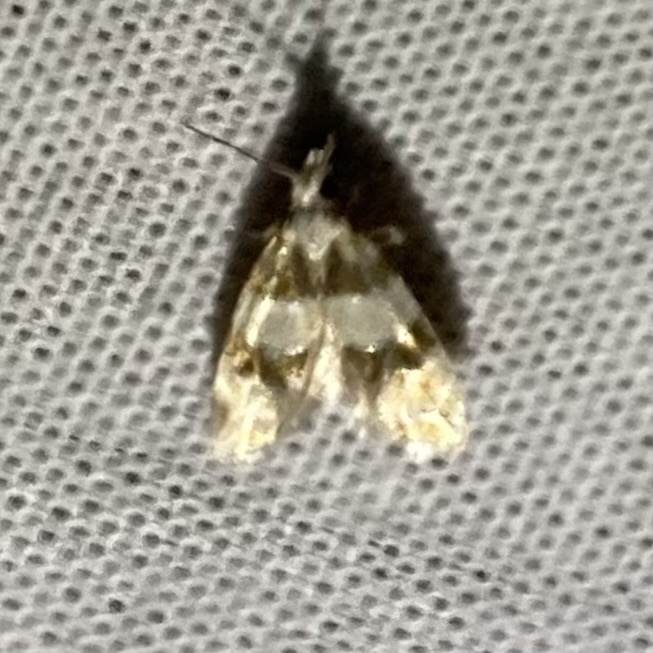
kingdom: Animalia
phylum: Arthropoda
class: Insecta
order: Lepidoptera
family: Tortricidae
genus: Aethes
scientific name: Aethes argentilimitana
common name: Silver-bordered aethes
